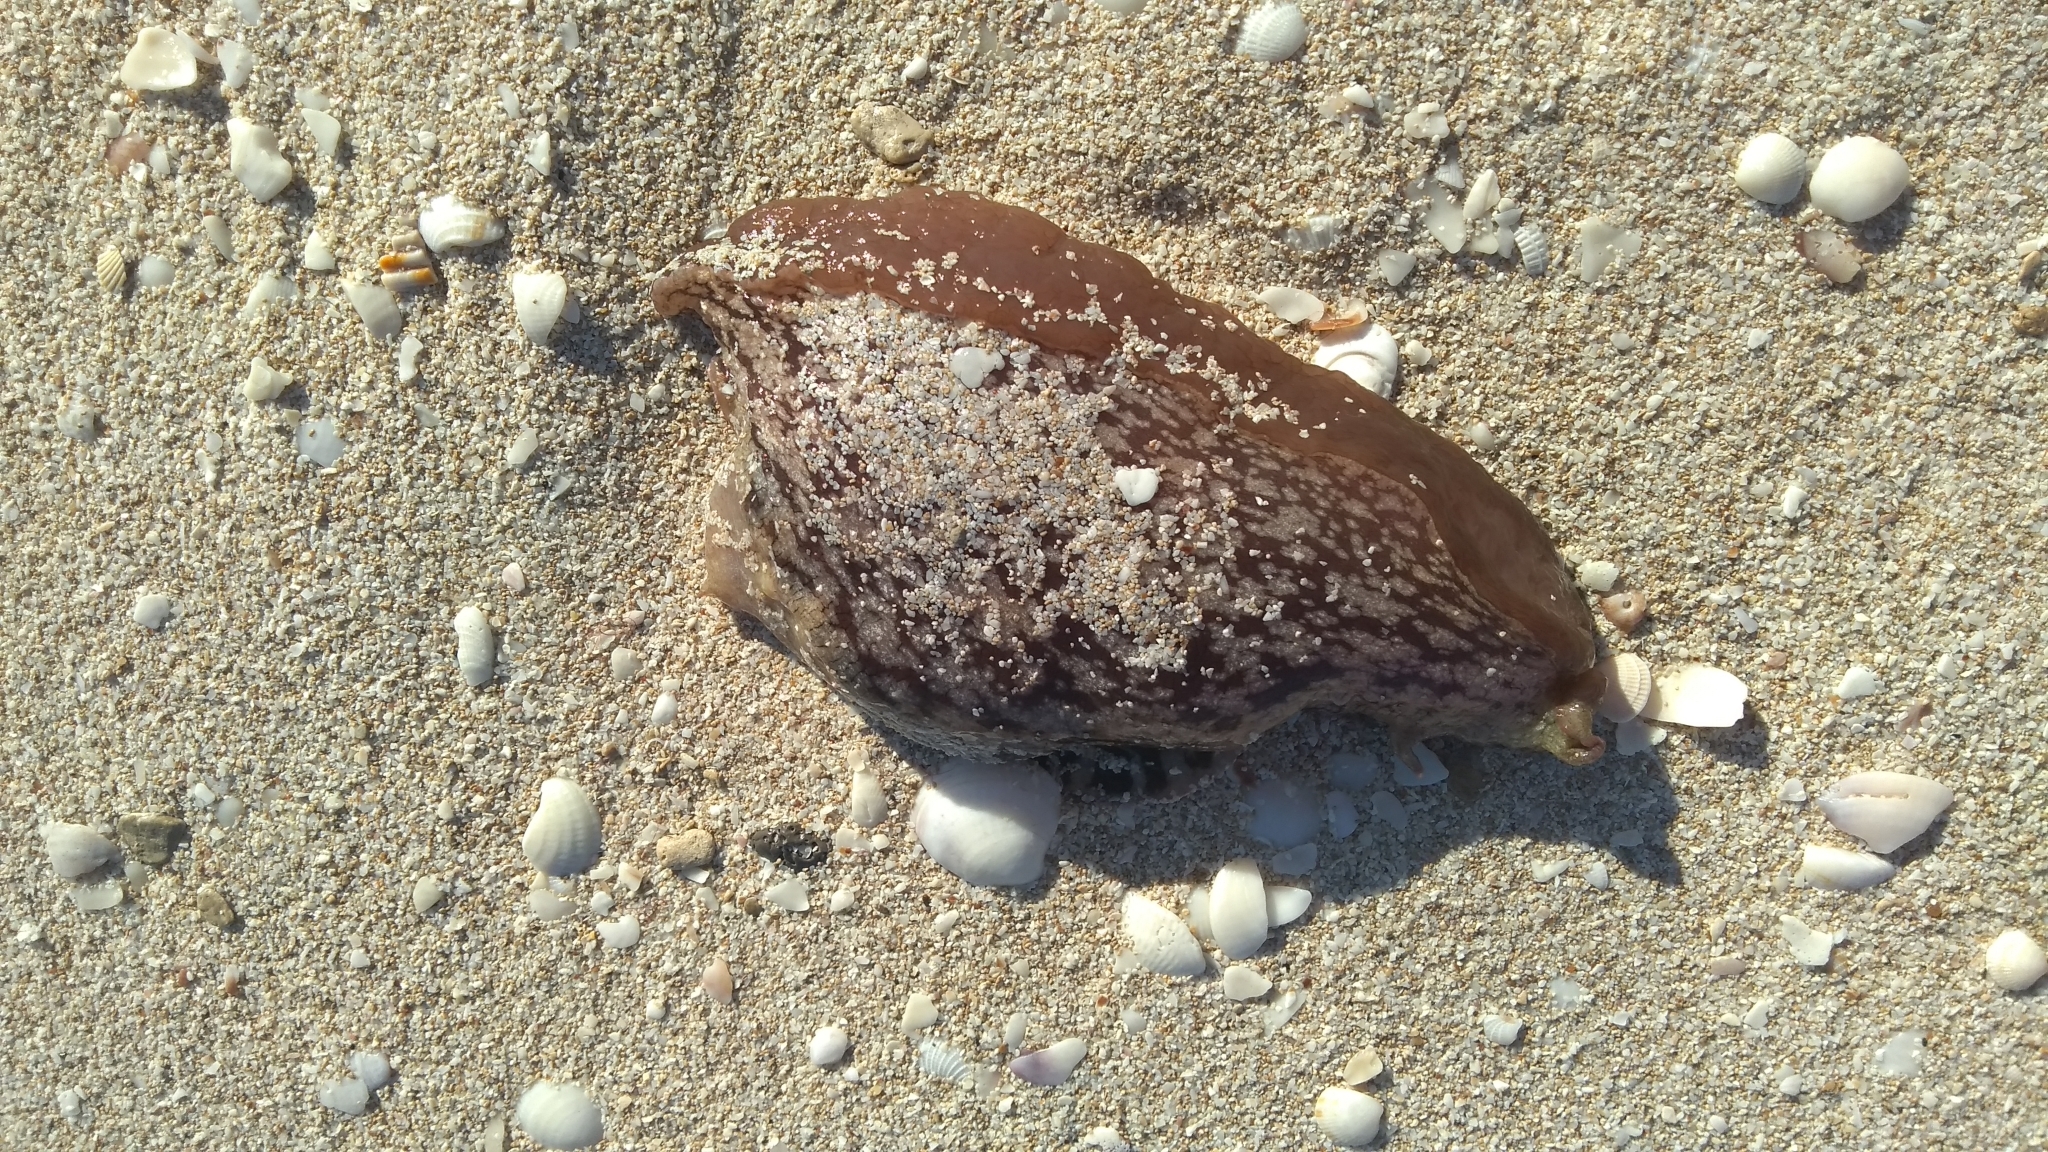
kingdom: Animalia
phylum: Mollusca
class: Gastropoda
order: Aplysiida
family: Aplysiidae
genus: Aplysia
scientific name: Aplysia brasiliana
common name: Mottled seahare
